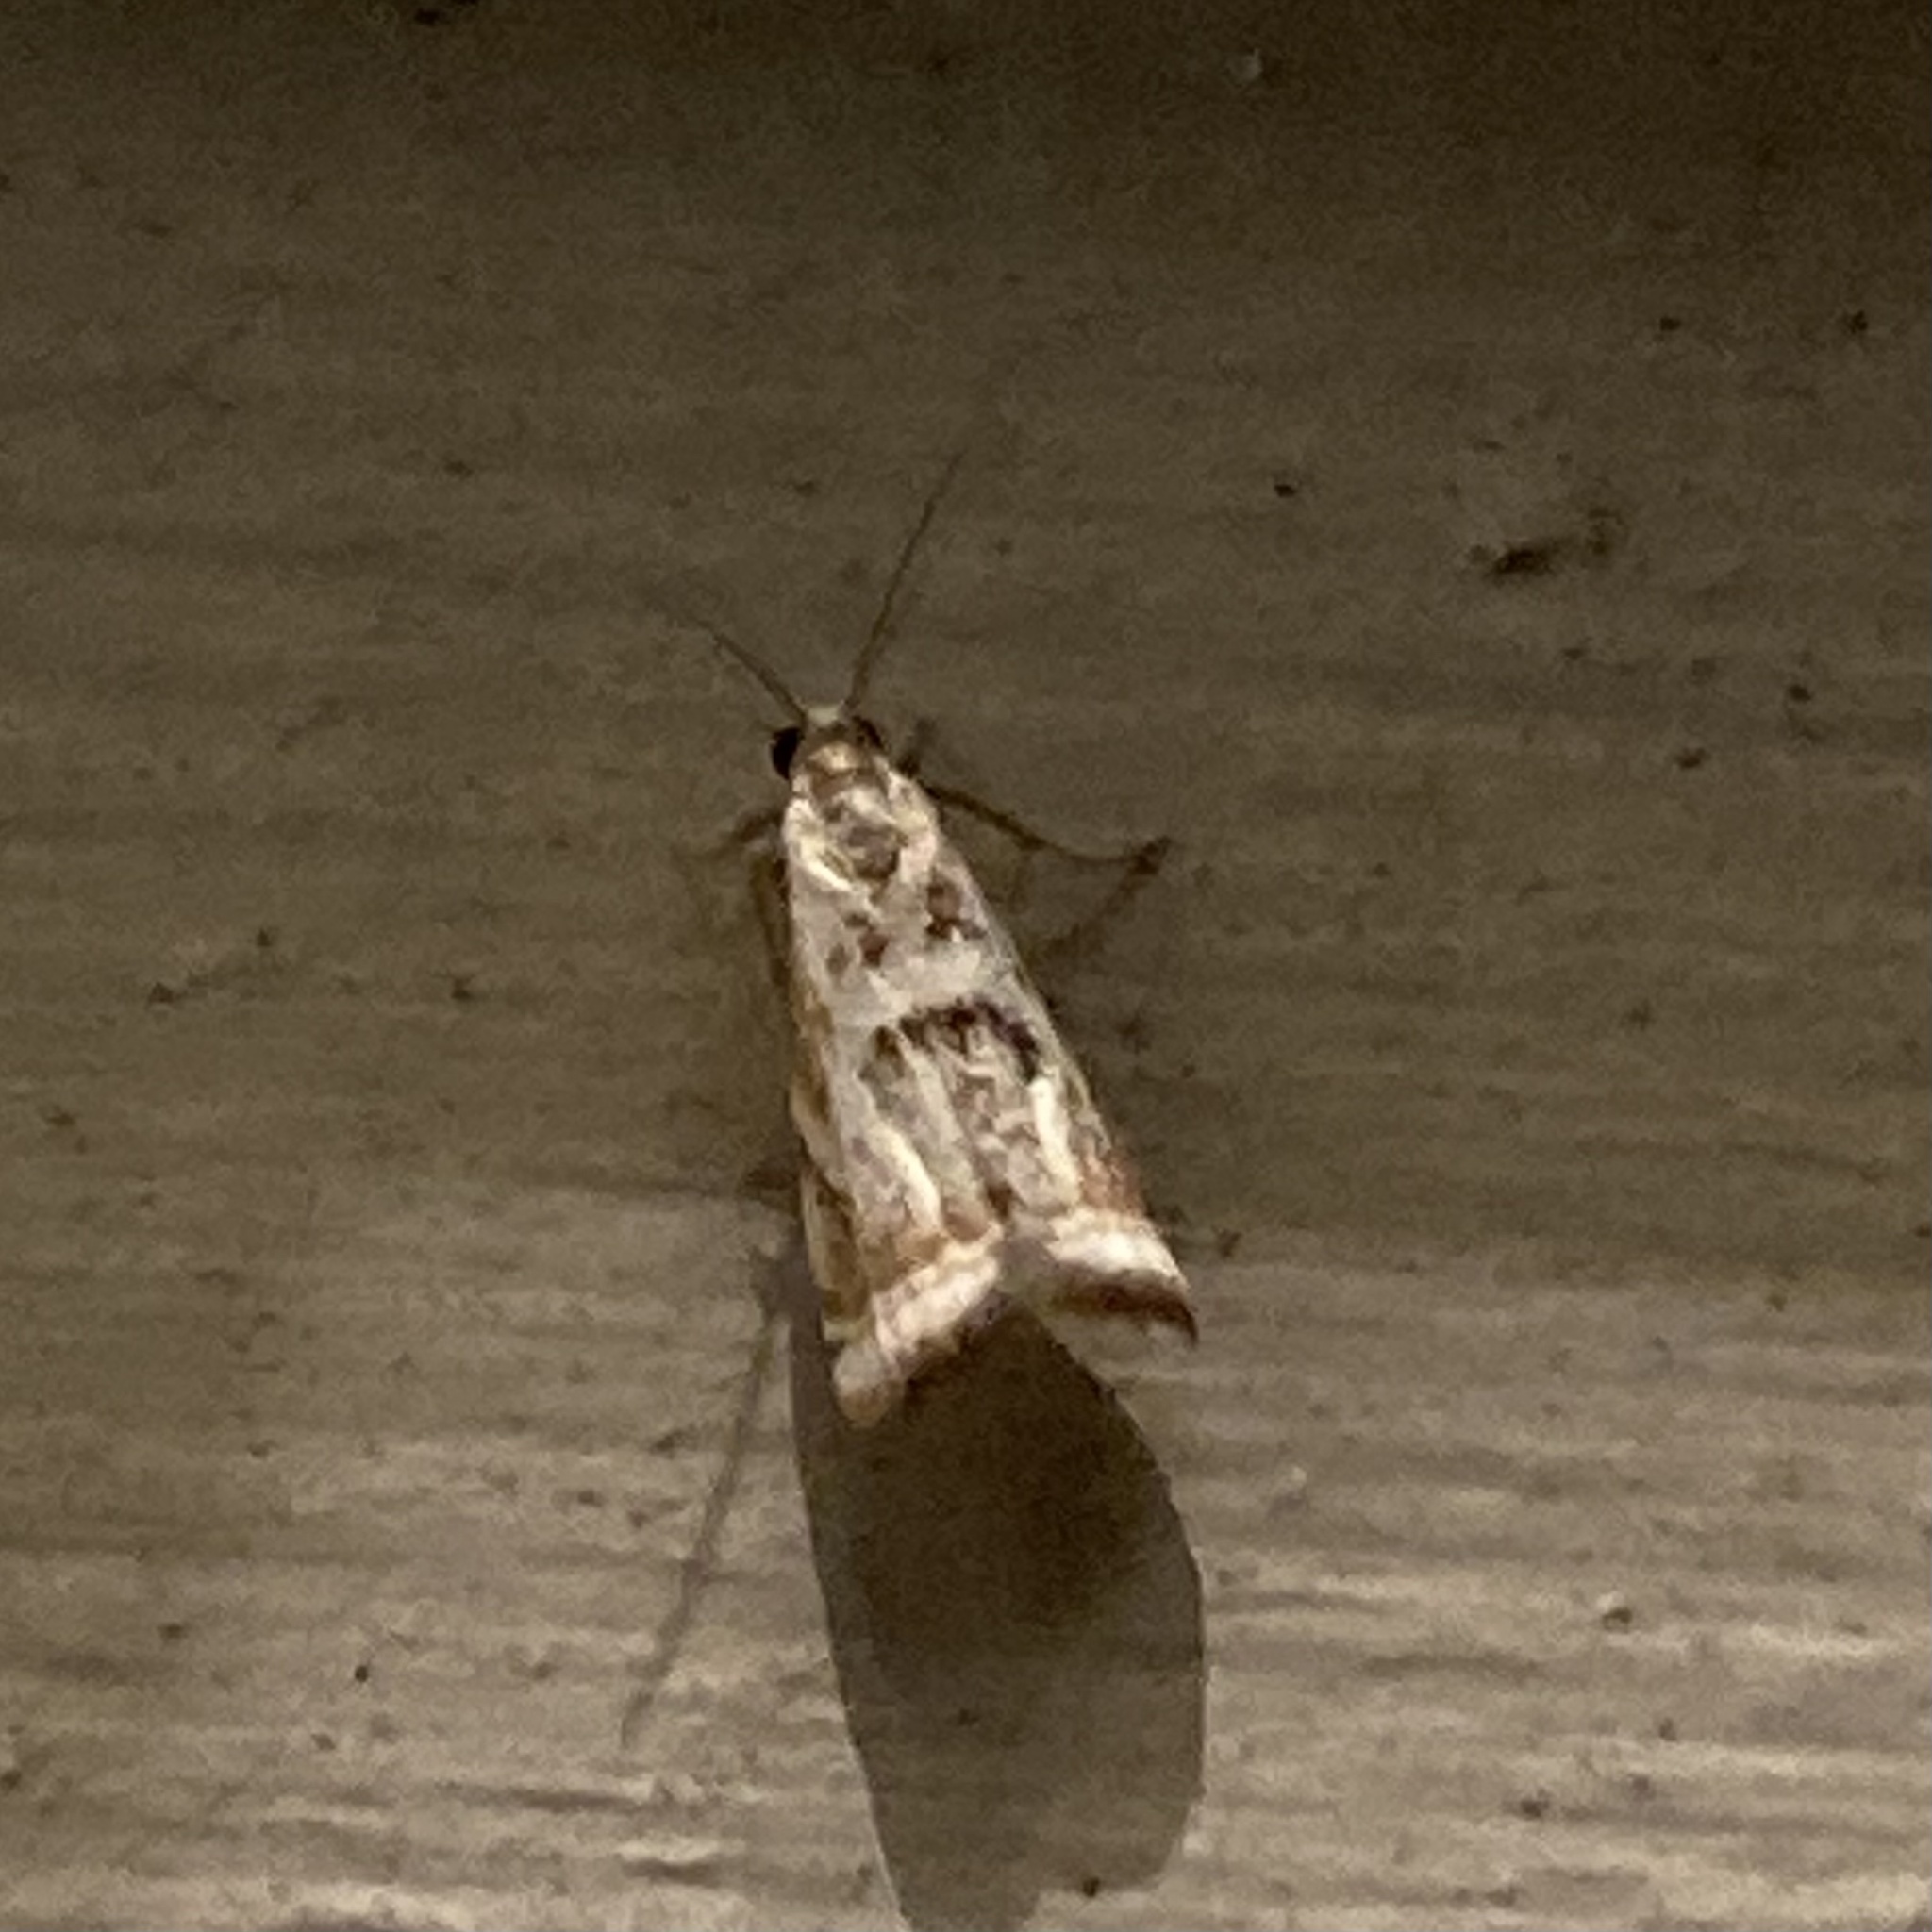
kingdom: Animalia
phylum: Arthropoda
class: Insecta
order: Lepidoptera
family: Crambidae
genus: Microcrambus
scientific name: Microcrambus elegans
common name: Elegant grass-veneer
